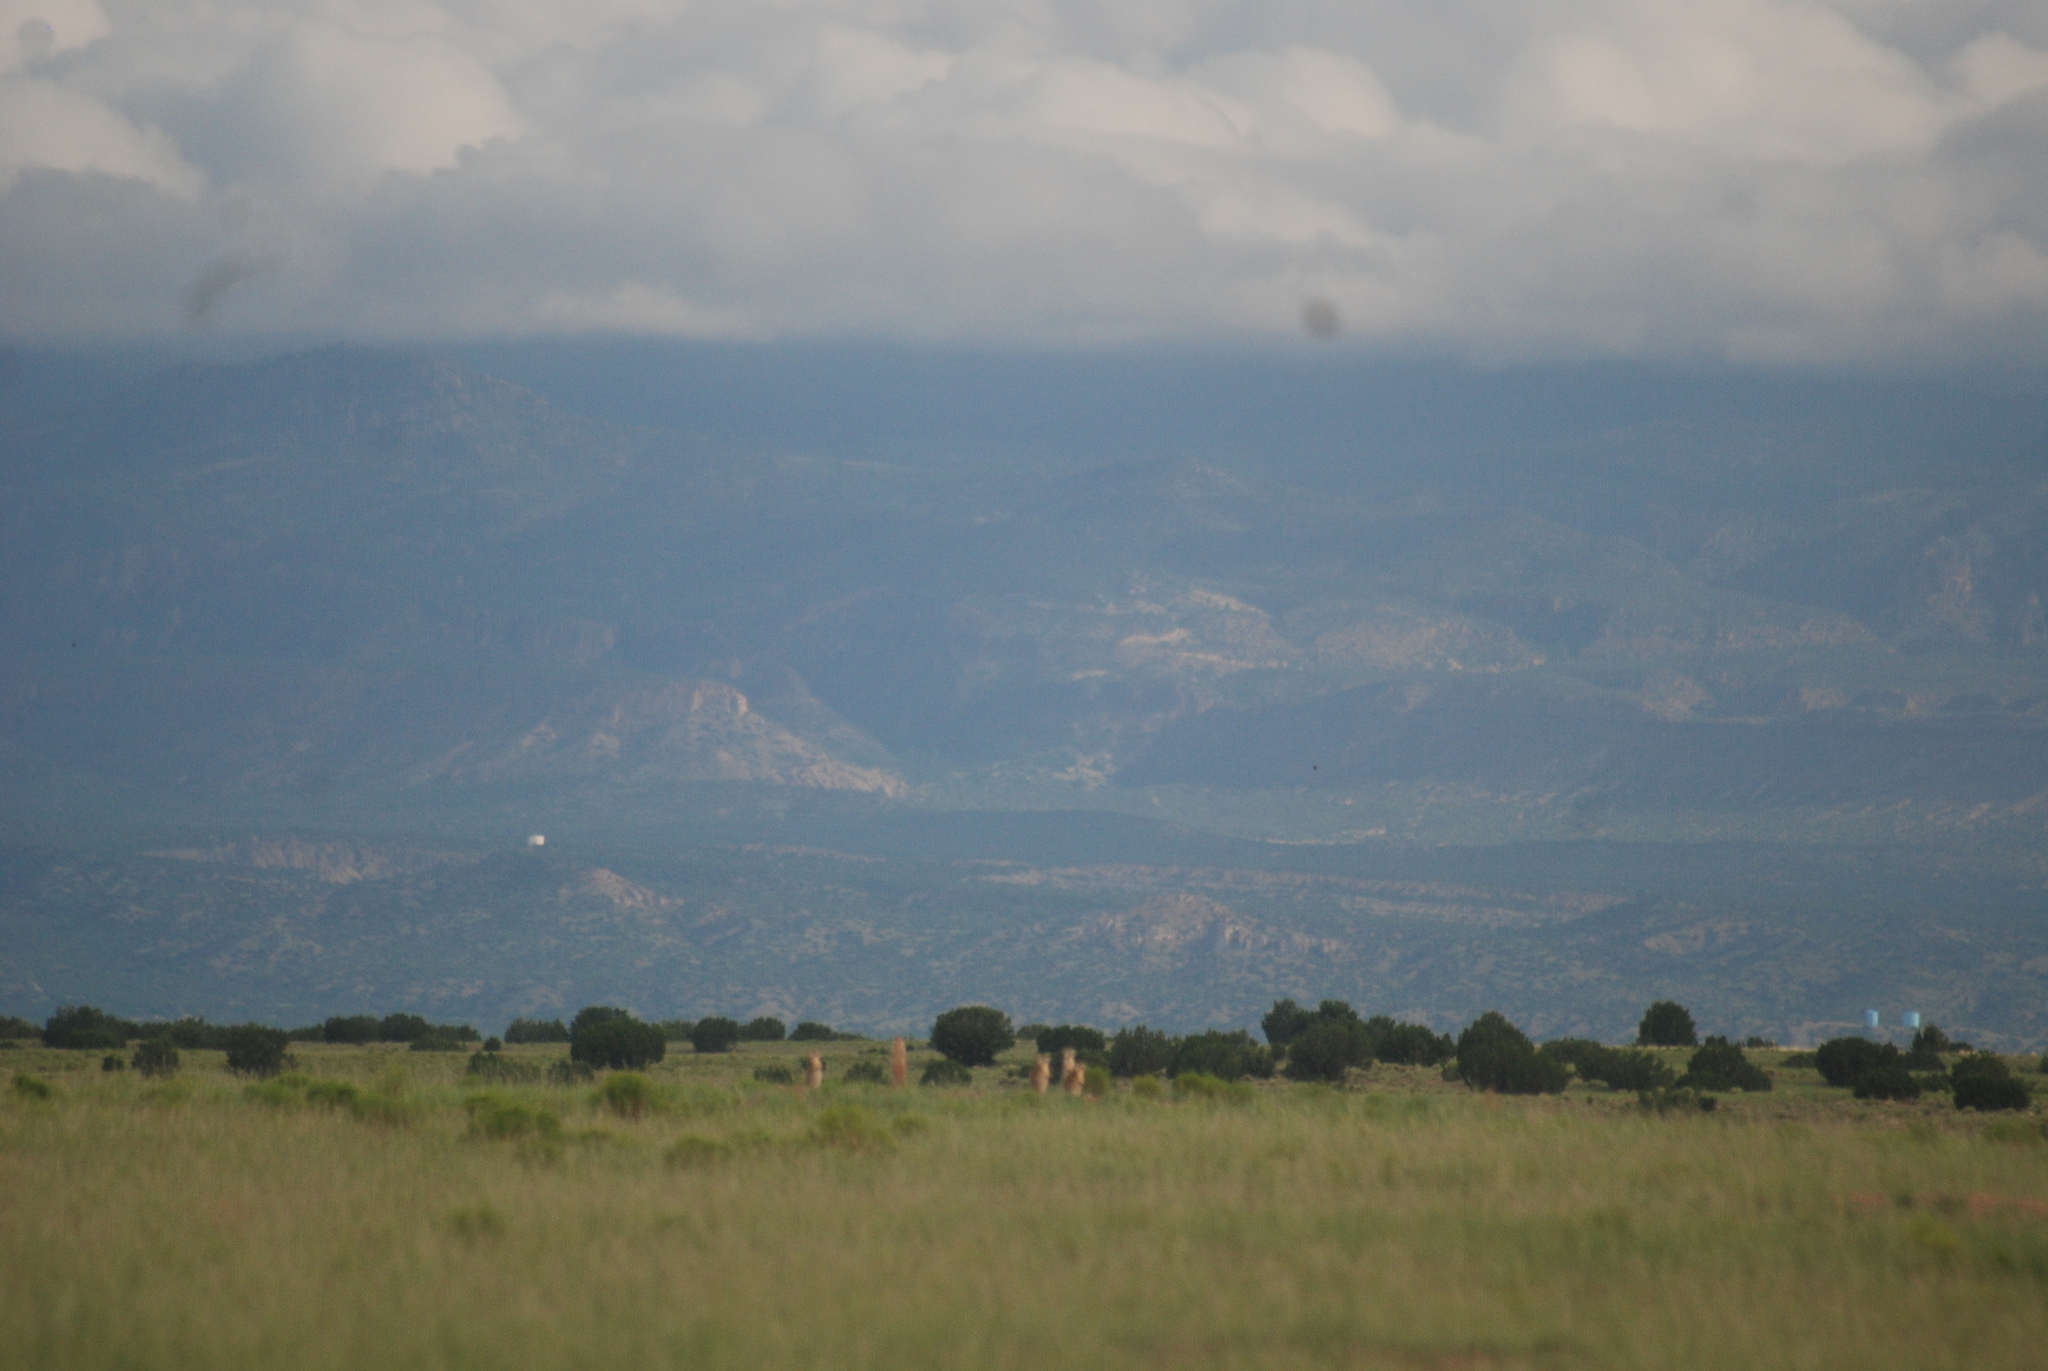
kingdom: Animalia
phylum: Chordata
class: Mammalia
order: Rodentia
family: Sciuridae
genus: Cynomys
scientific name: Cynomys gunnisoni
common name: Gunnison's prairie dog
